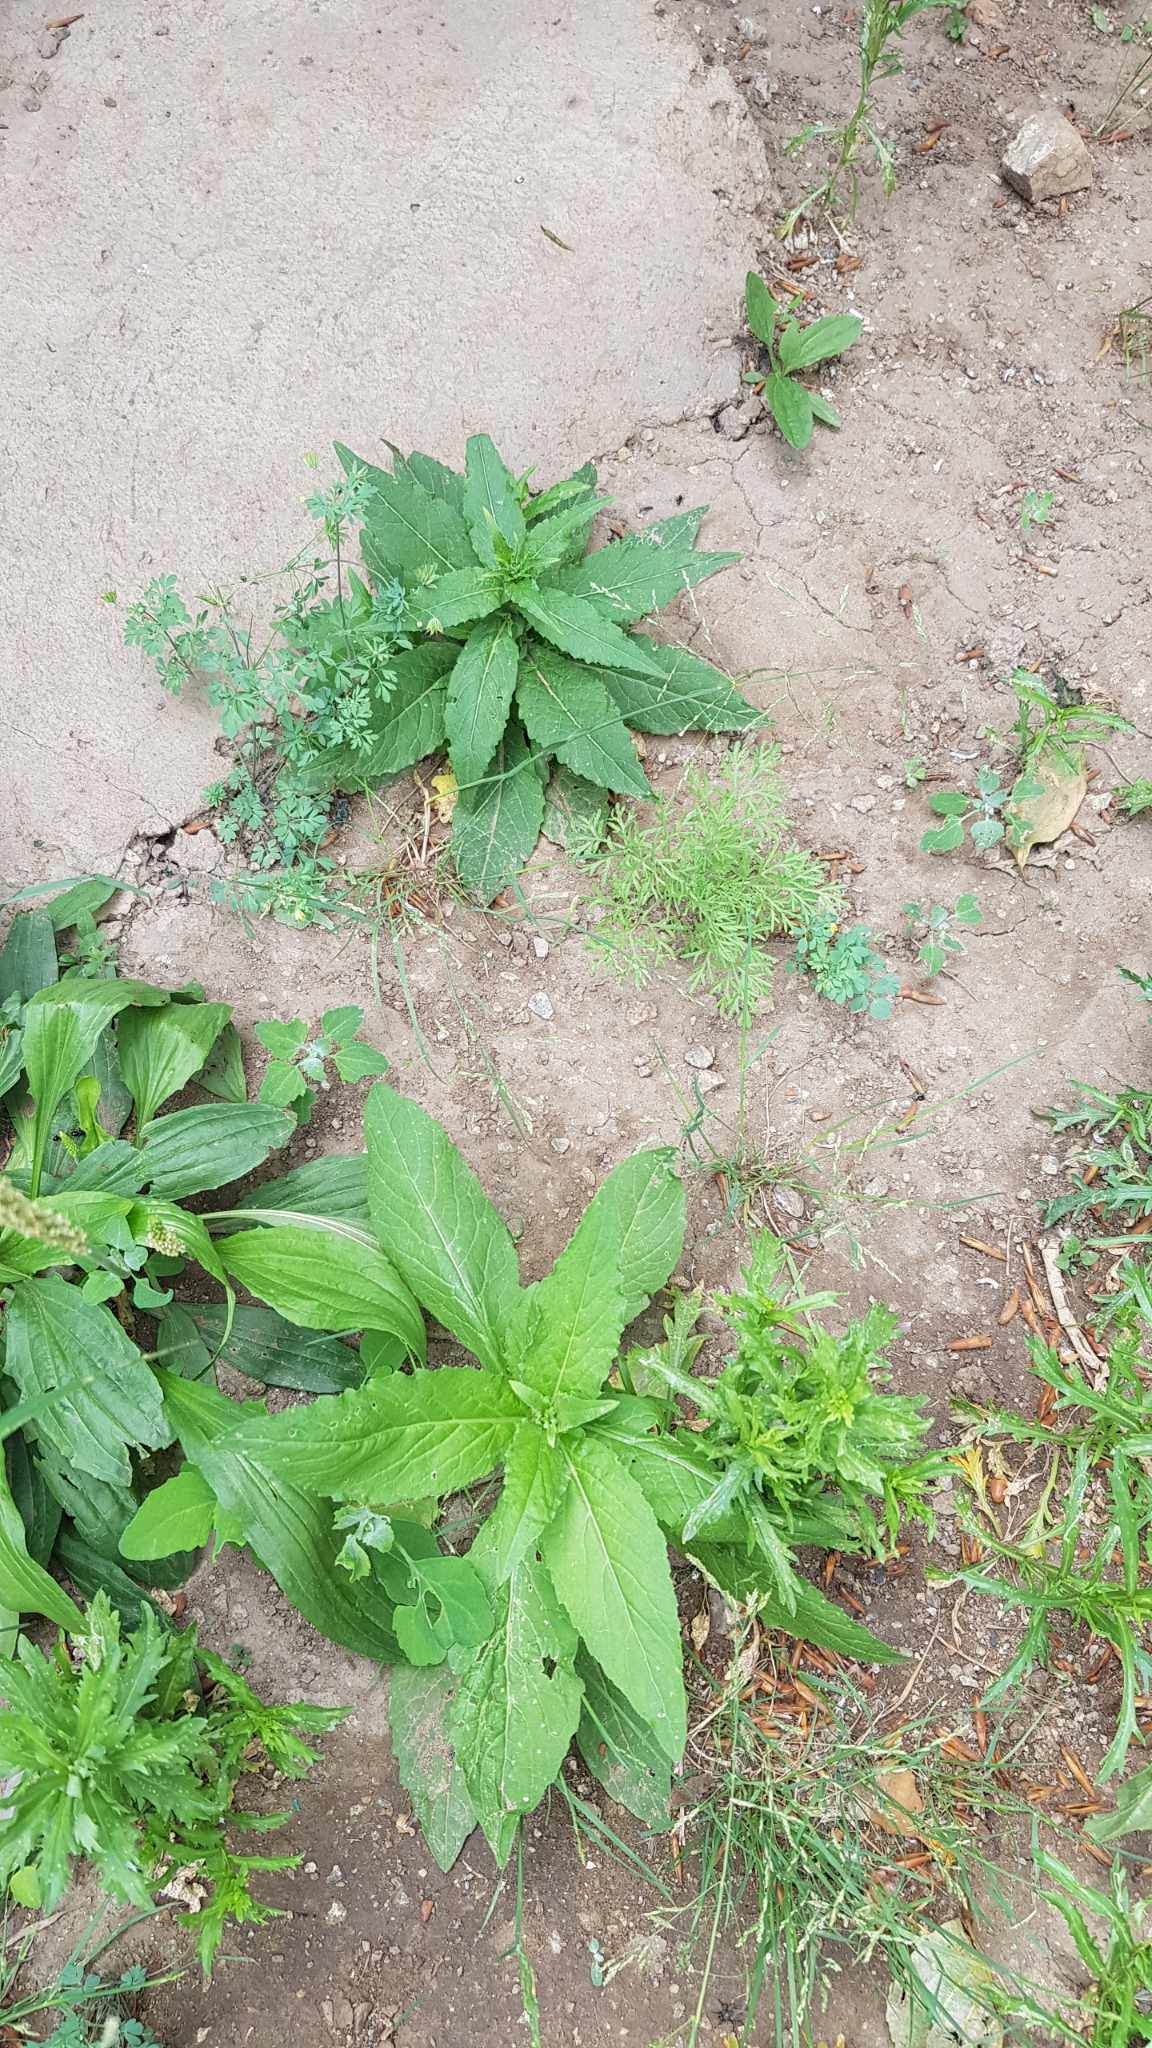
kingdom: Plantae
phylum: Tracheophyta
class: Magnoliopsida
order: Brassicales
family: Brassicaceae
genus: Catolobus
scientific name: Catolobus pendulus
